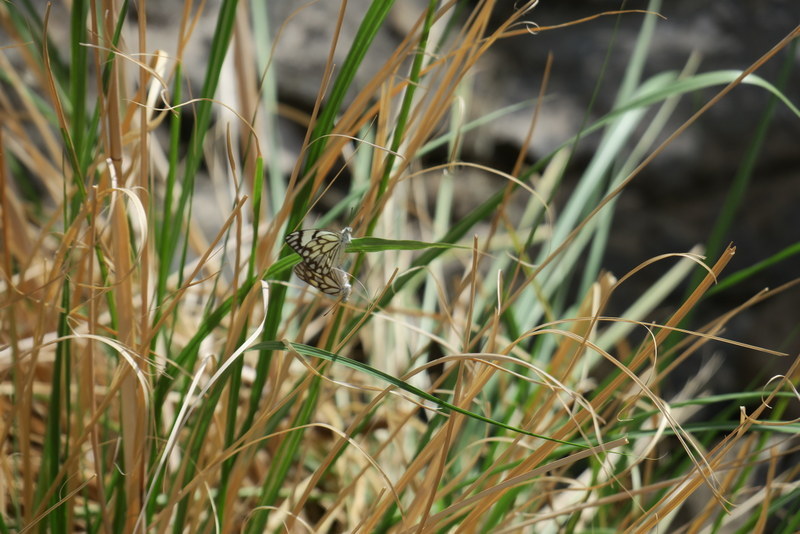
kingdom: Animalia
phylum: Arthropoda
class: Insecta
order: Lepidoptera
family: Pieridae
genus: Belenois
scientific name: Belenois aurota
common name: Brown-veined white
